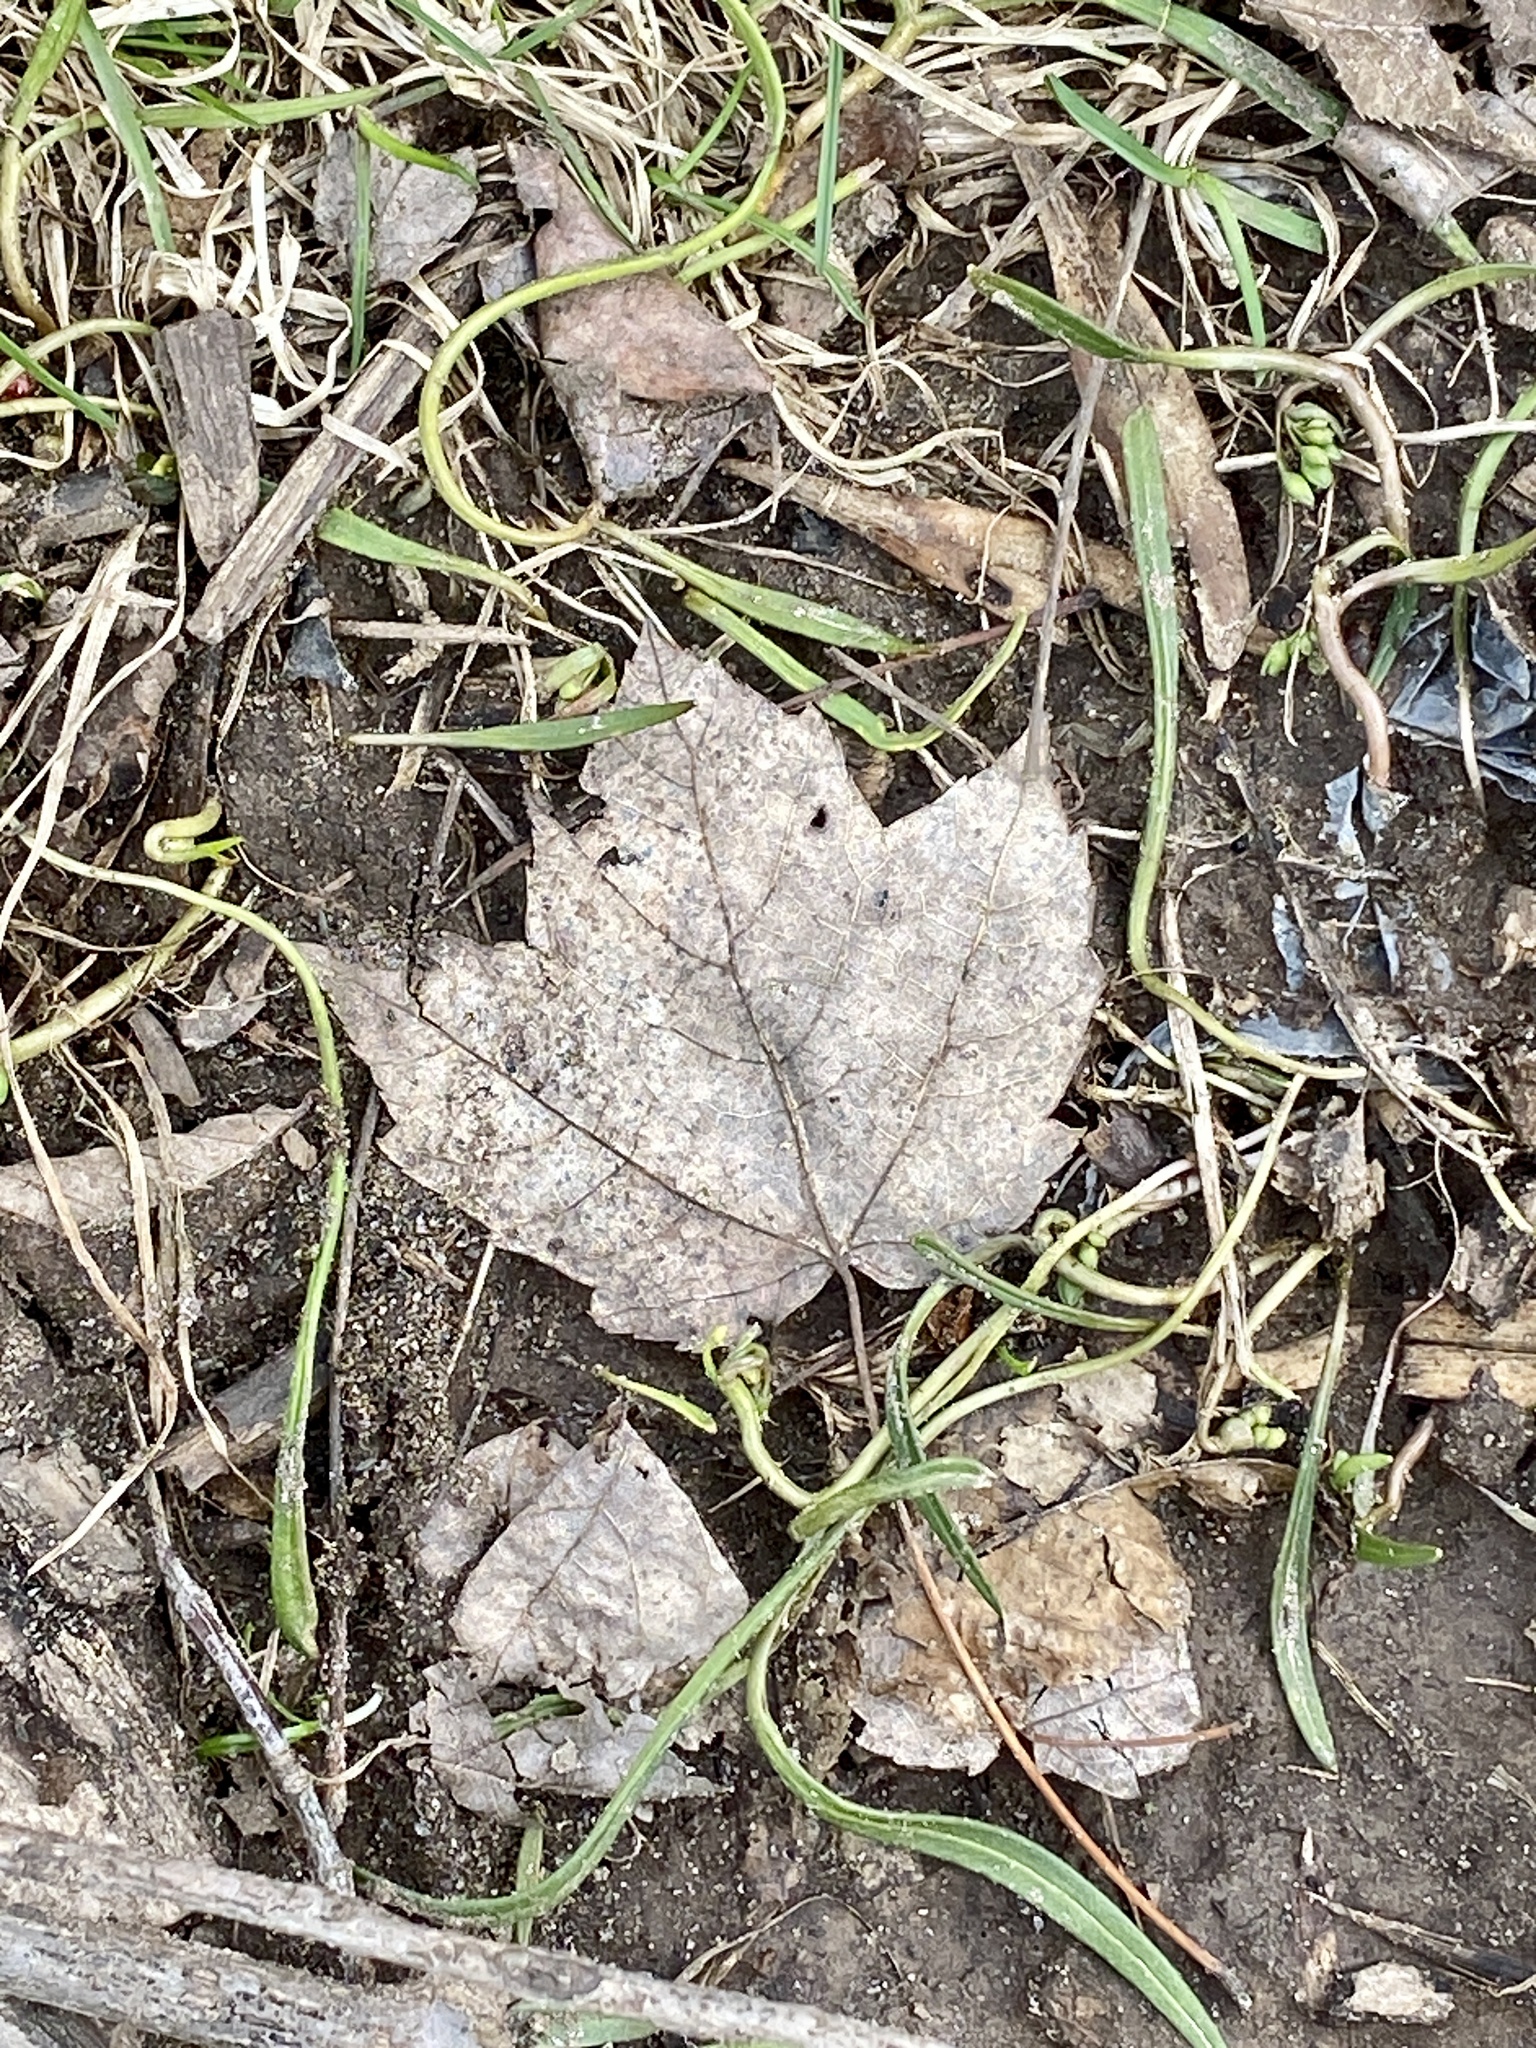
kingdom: Plantae
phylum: Tracheophyta
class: Magnoliopsida
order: Sapindales
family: Sapindaceae
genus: Acer
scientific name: Acer rubrum
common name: Red maple
